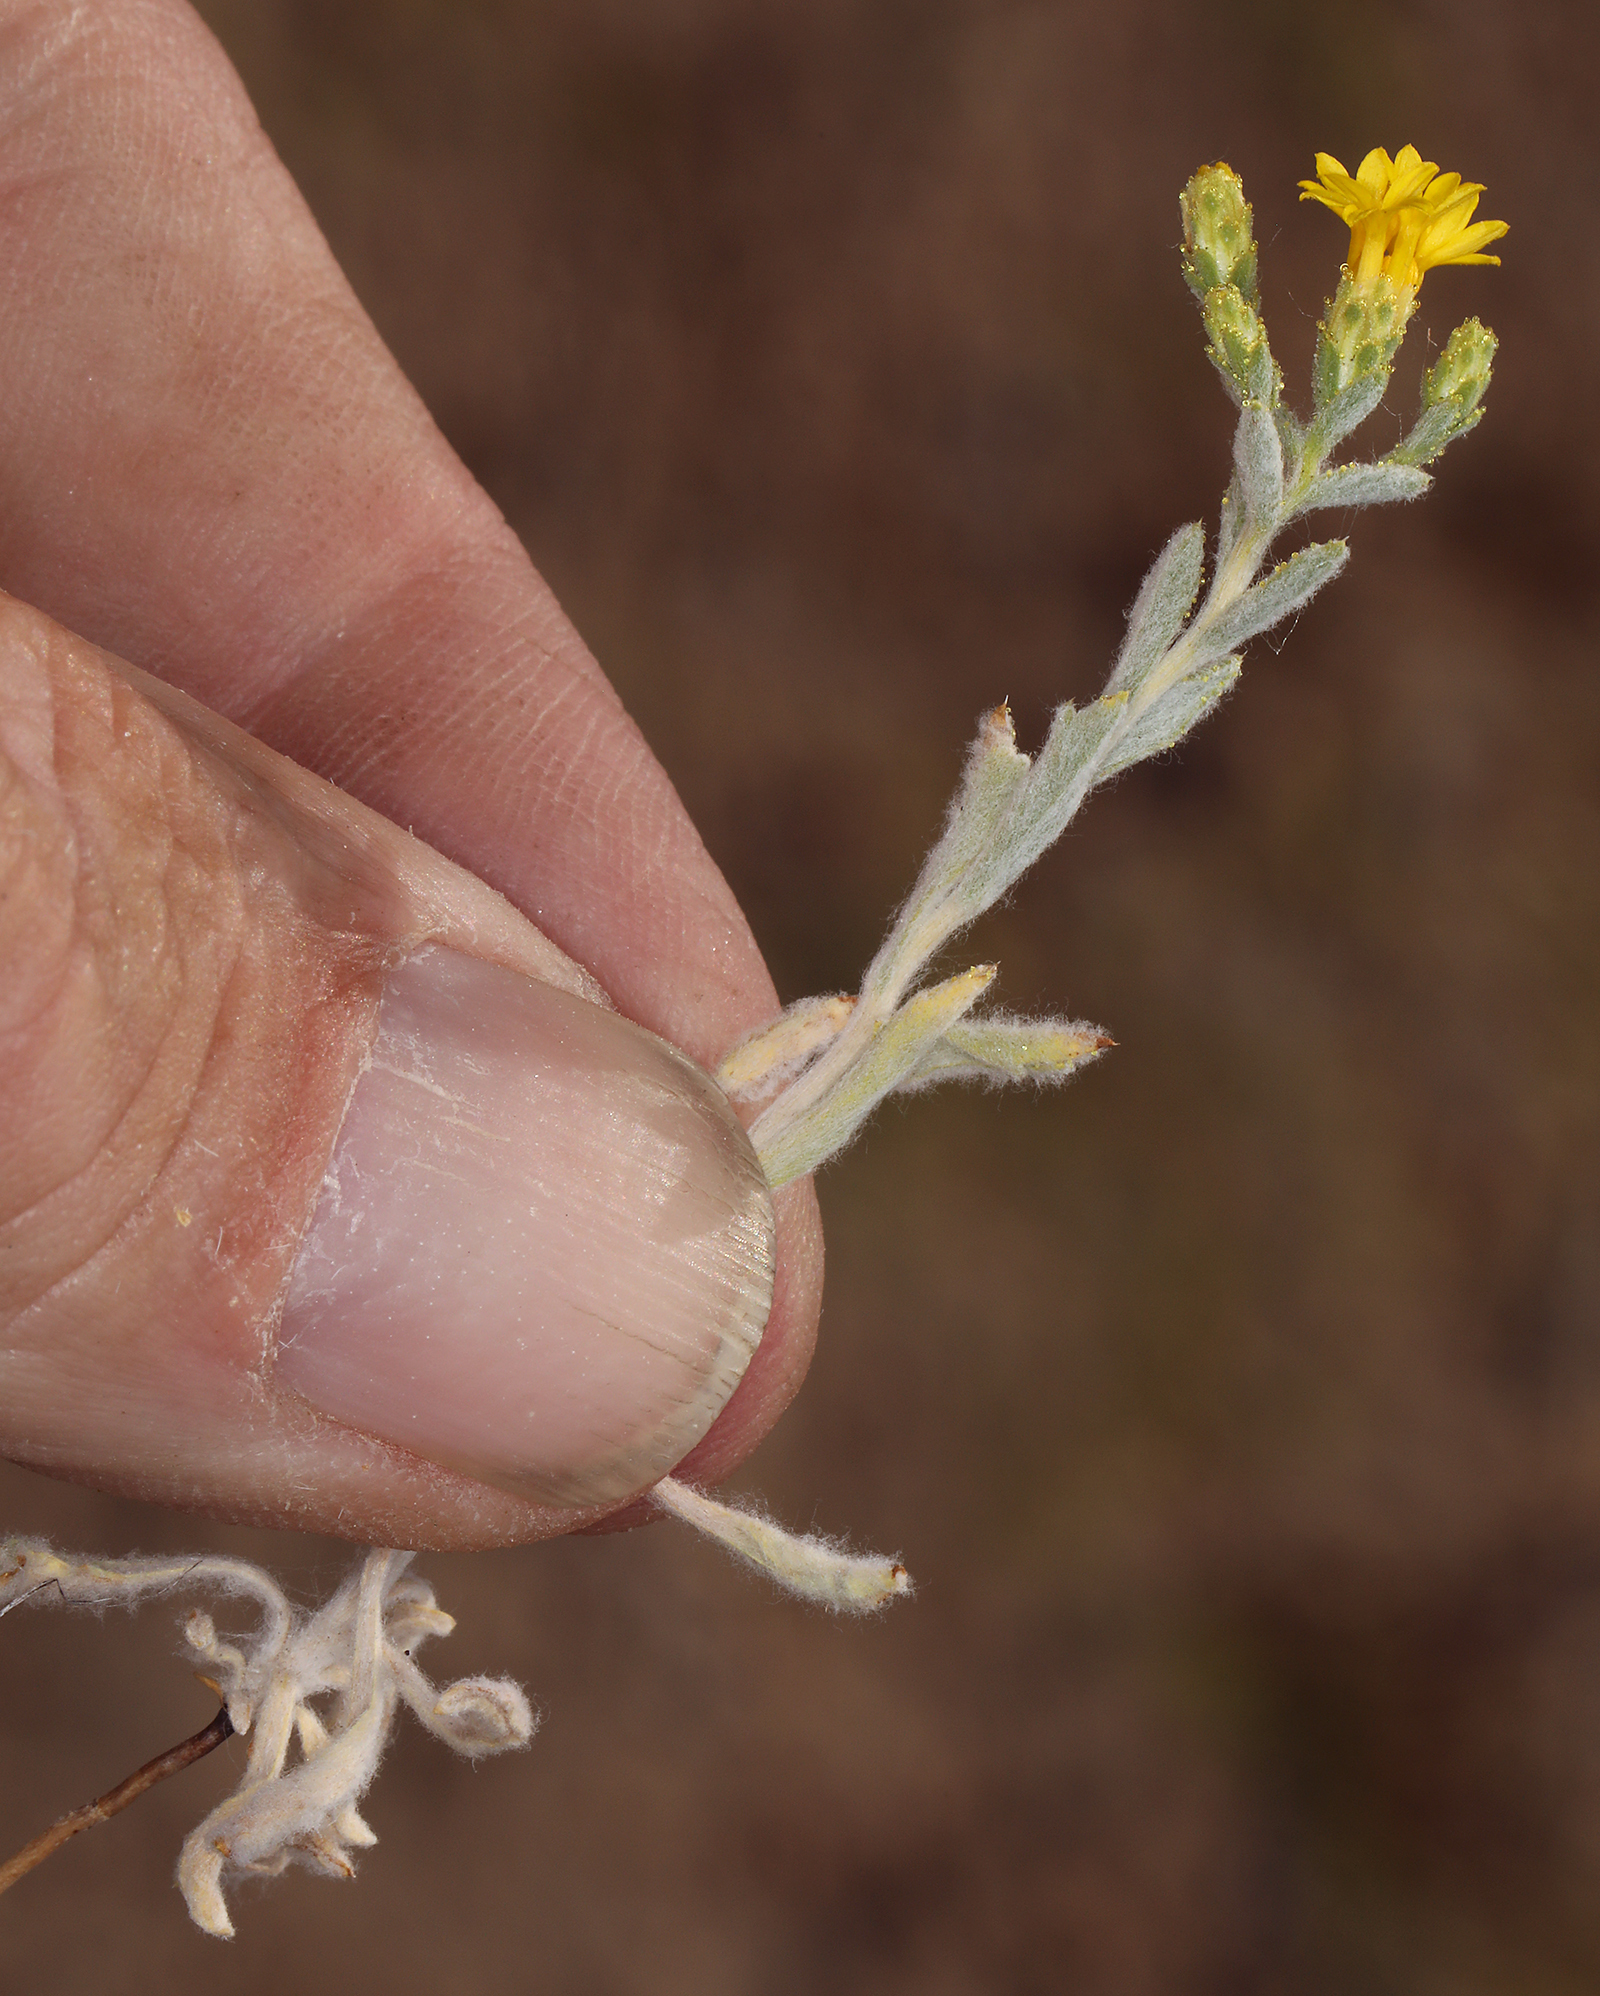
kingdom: Plantae
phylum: Tracheophyta
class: Magnoliopsida
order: Asterales
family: Asteraceae
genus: Lessingia
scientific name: Lessingia glandulifera
